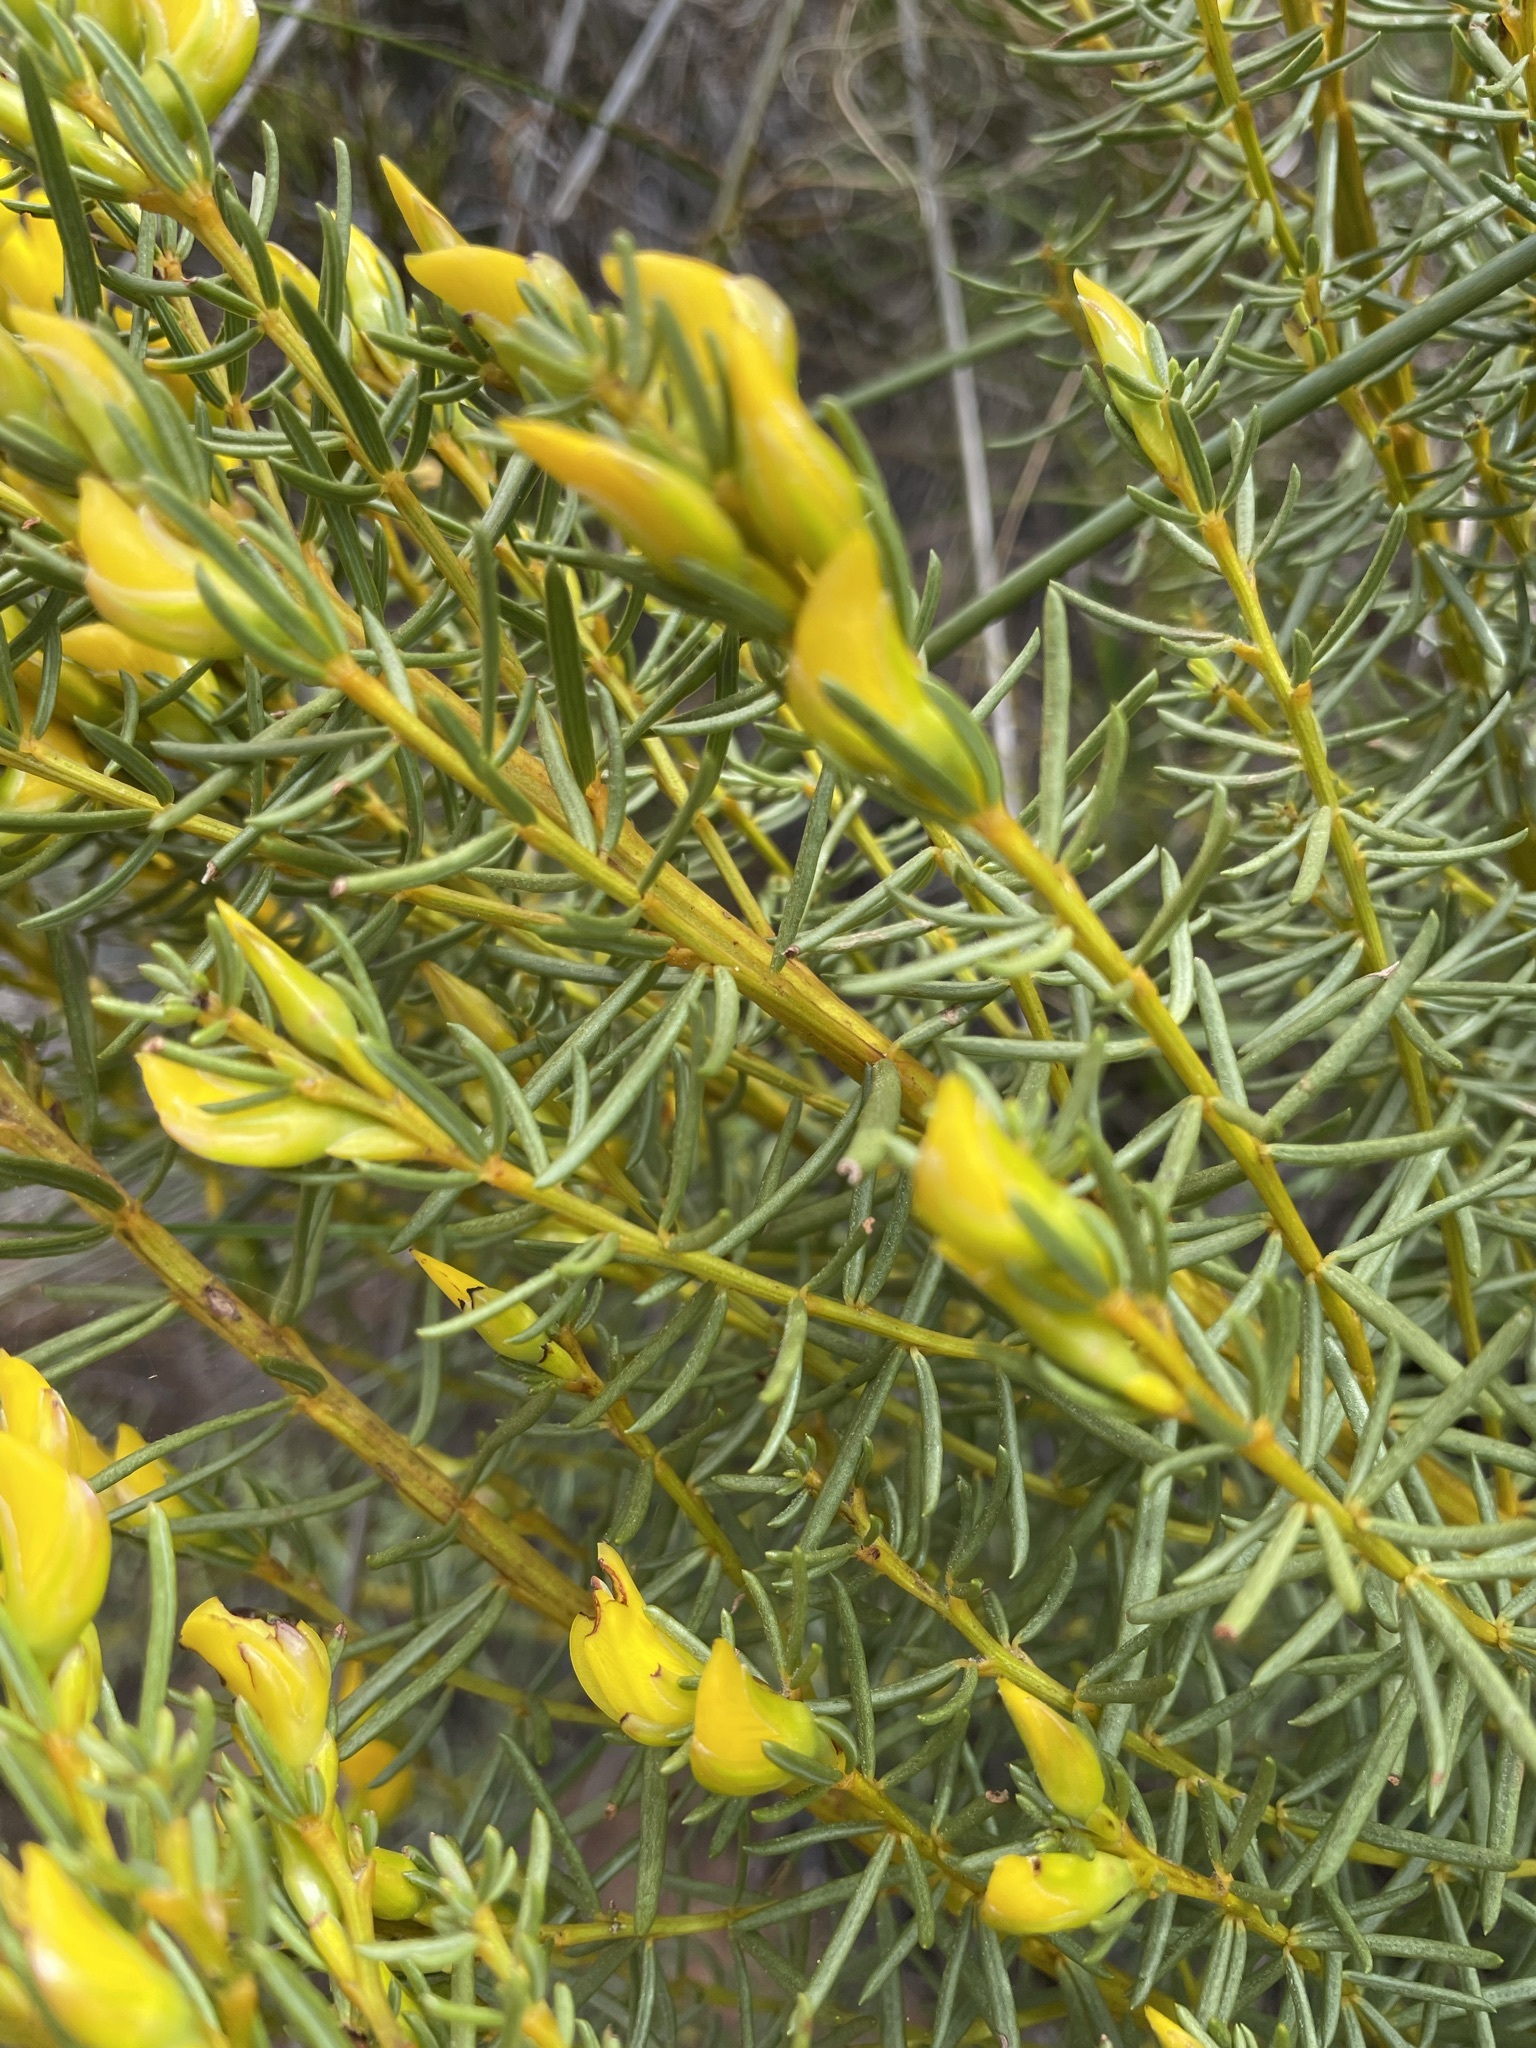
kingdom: Plantae
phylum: Tracheophyta
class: Magnoliopsida
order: Fabales
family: Fabaceae
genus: Cyclopia
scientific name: Cyclopia genistoides
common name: Honeybush tea
